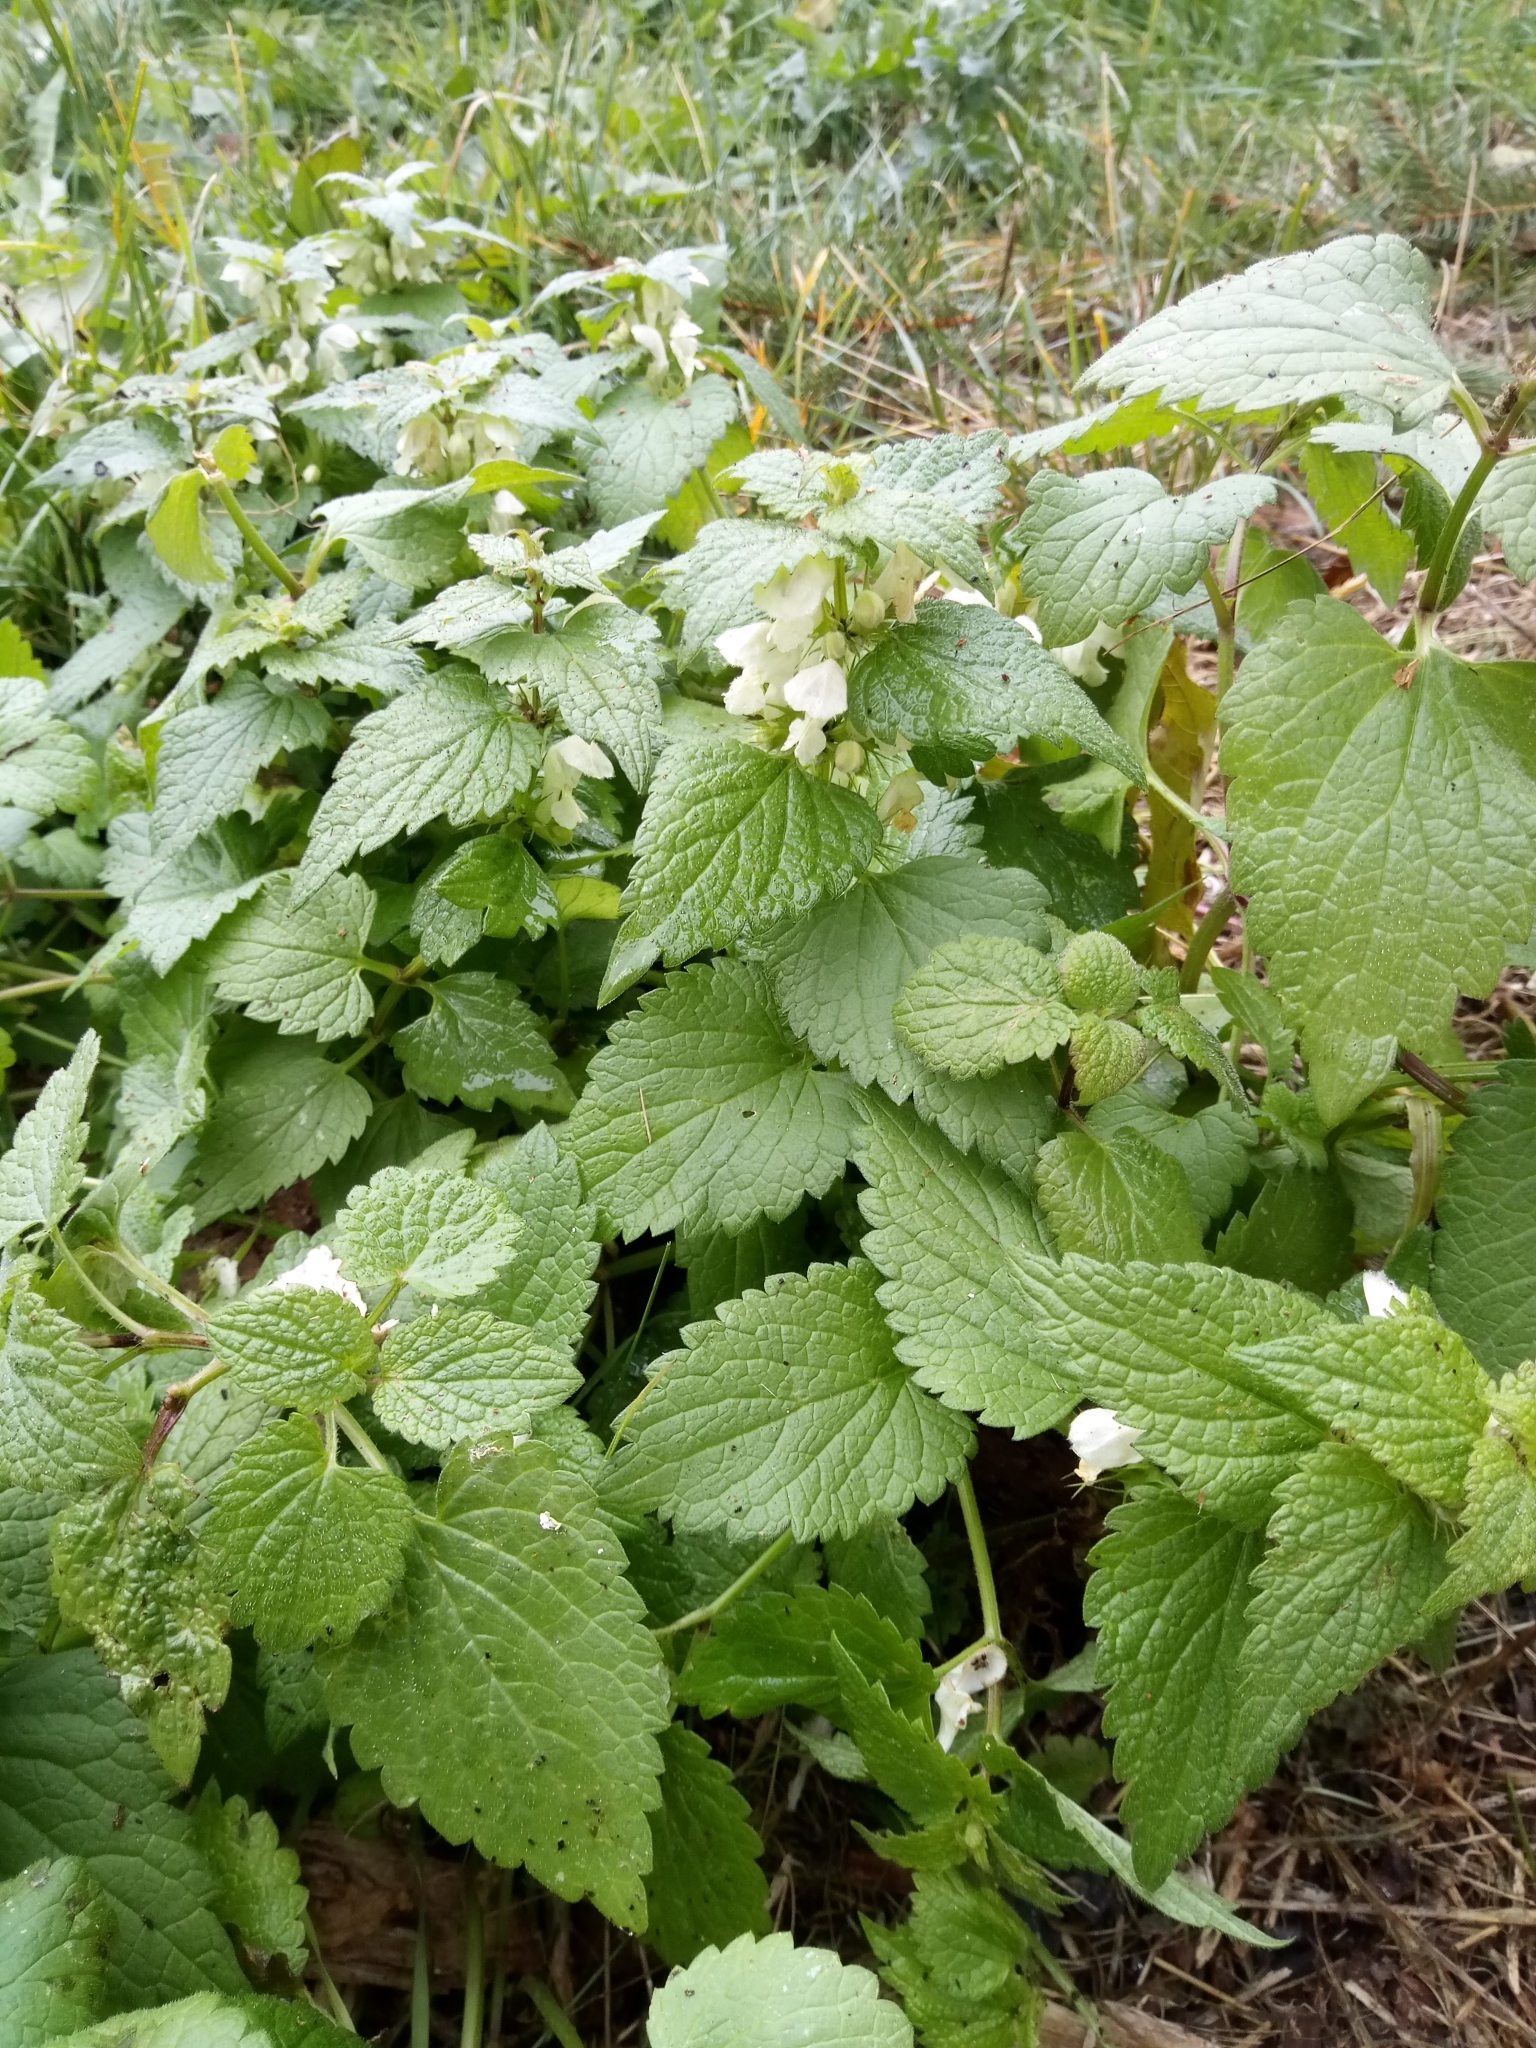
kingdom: Plantae
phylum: Tracheophyta
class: Magnoliopsida
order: Lamiales
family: Lamiaceae
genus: Lamium
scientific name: Lamium album
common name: White dead-nettle
